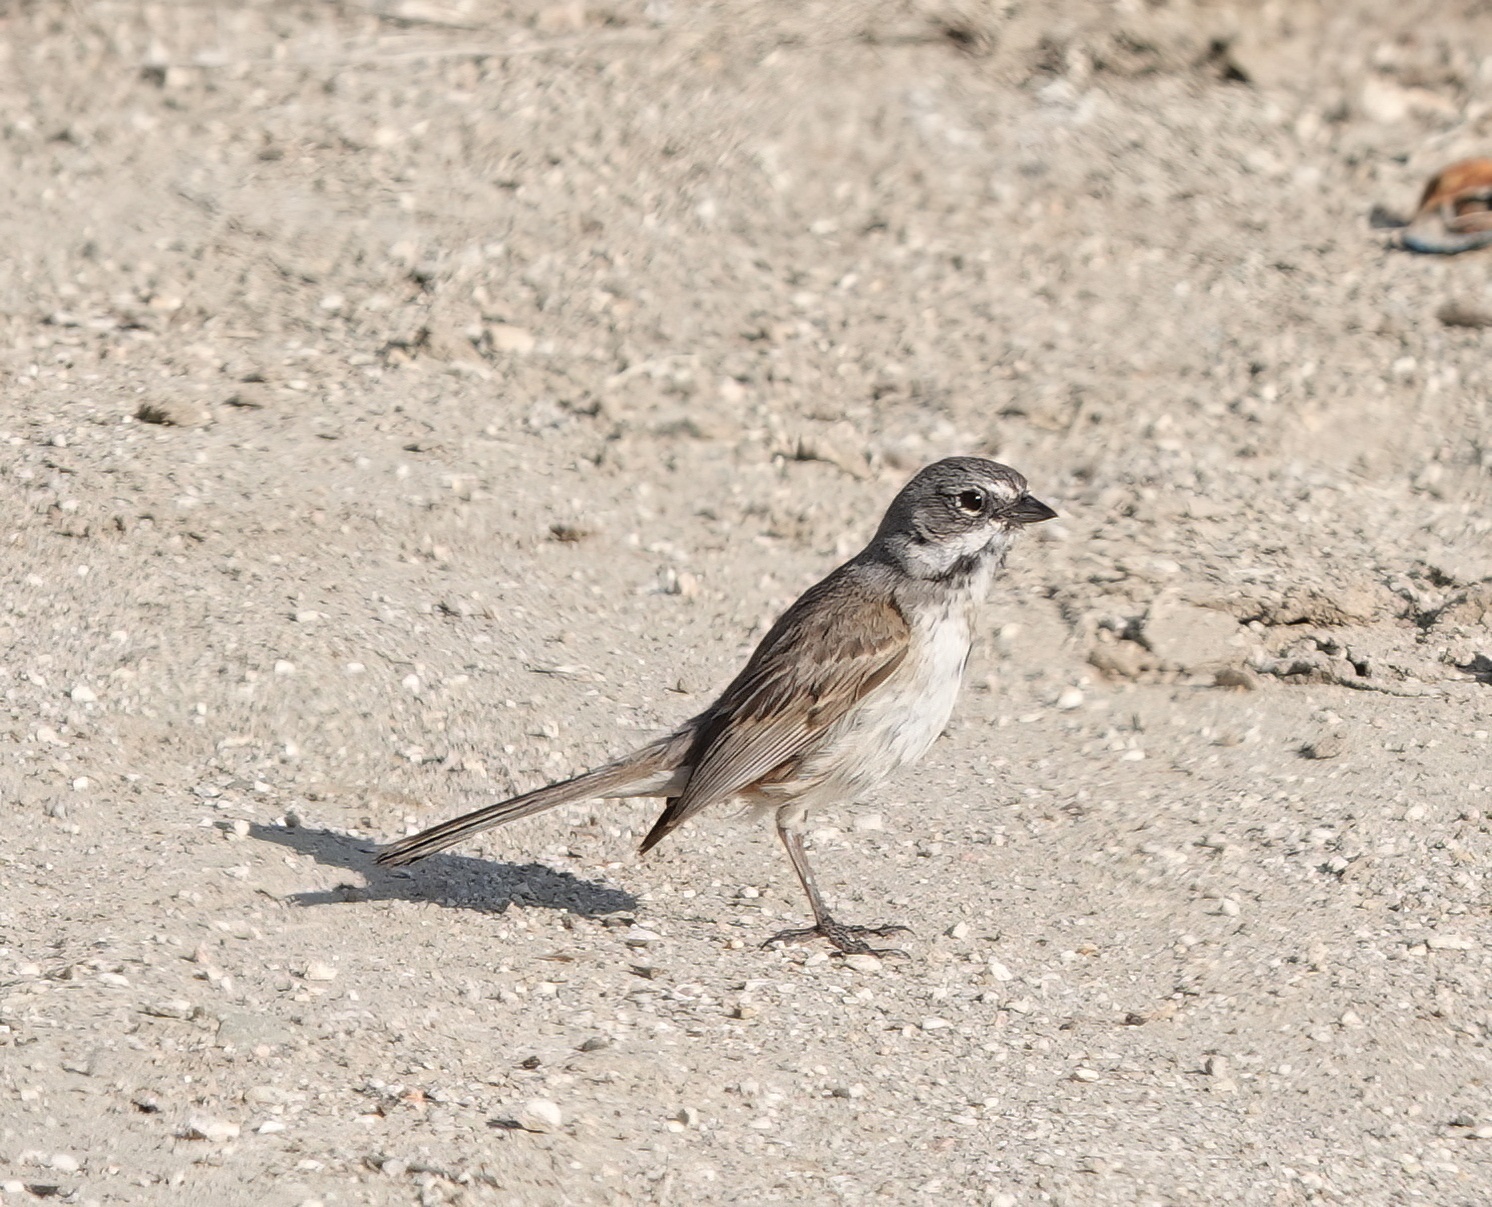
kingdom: Animalia
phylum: Chordata
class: Aves
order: Passeriformes
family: Passerellidae
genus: Artemisiospiza
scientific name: Artemisiospiza belli
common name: Bell's sparrow
